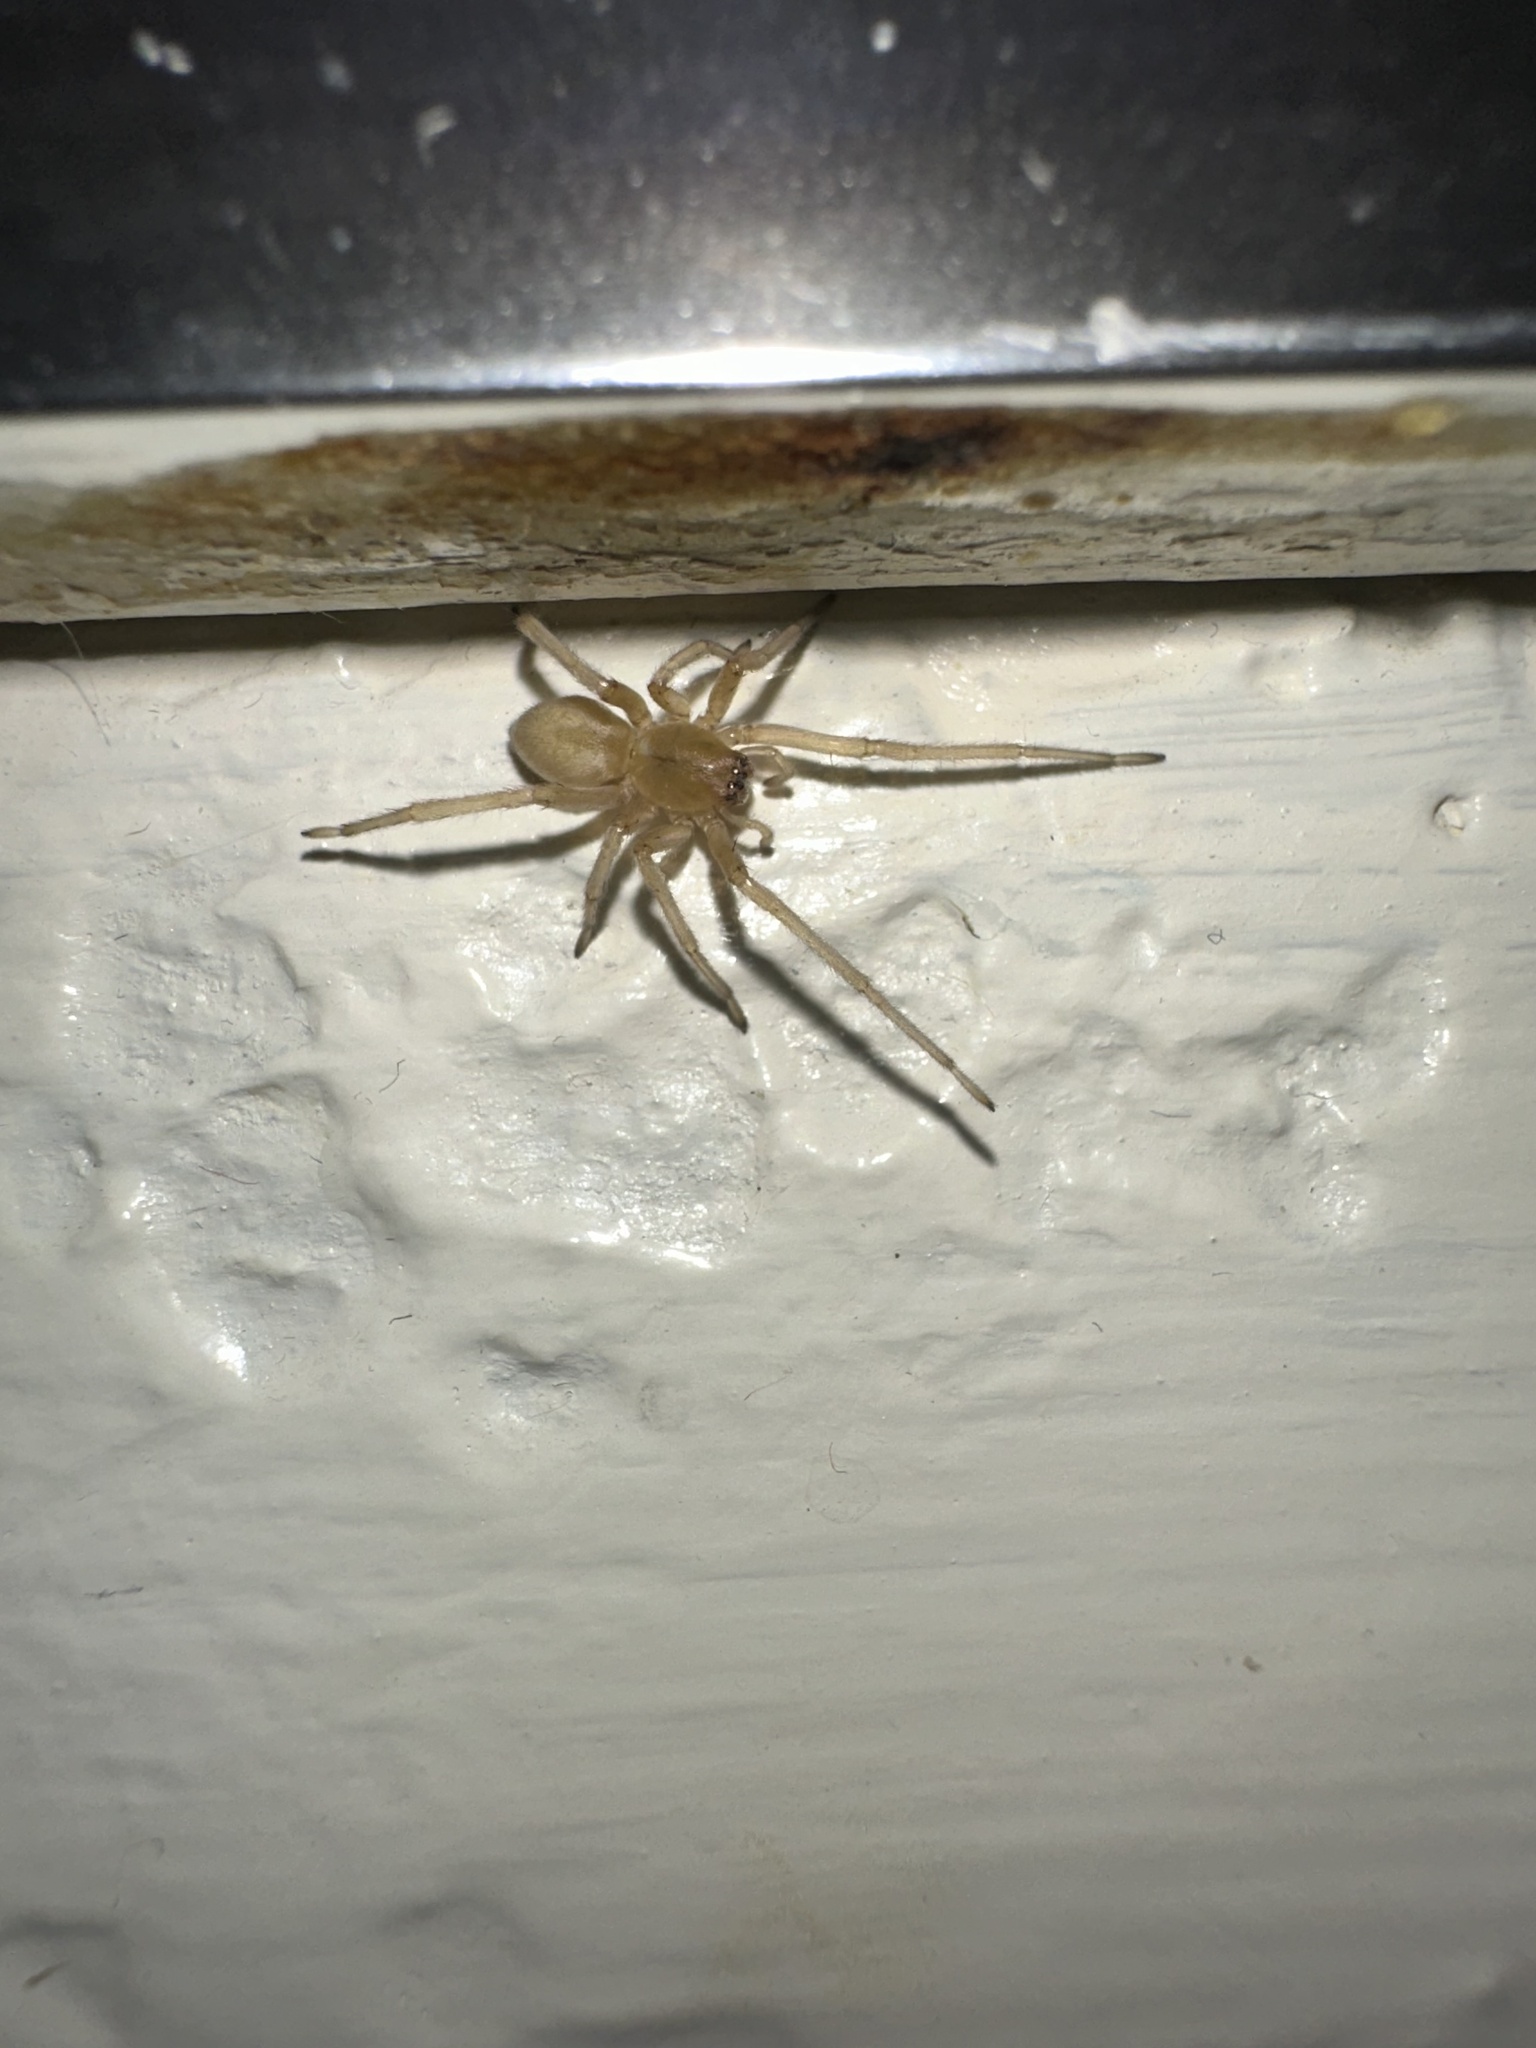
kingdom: Animalia
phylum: Arthropoda
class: Arachnida
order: Araneae
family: Cheiracanthiidae
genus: Cheiracanthium
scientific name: Cheiracanthium mildei
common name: Northern yellow sac spider
